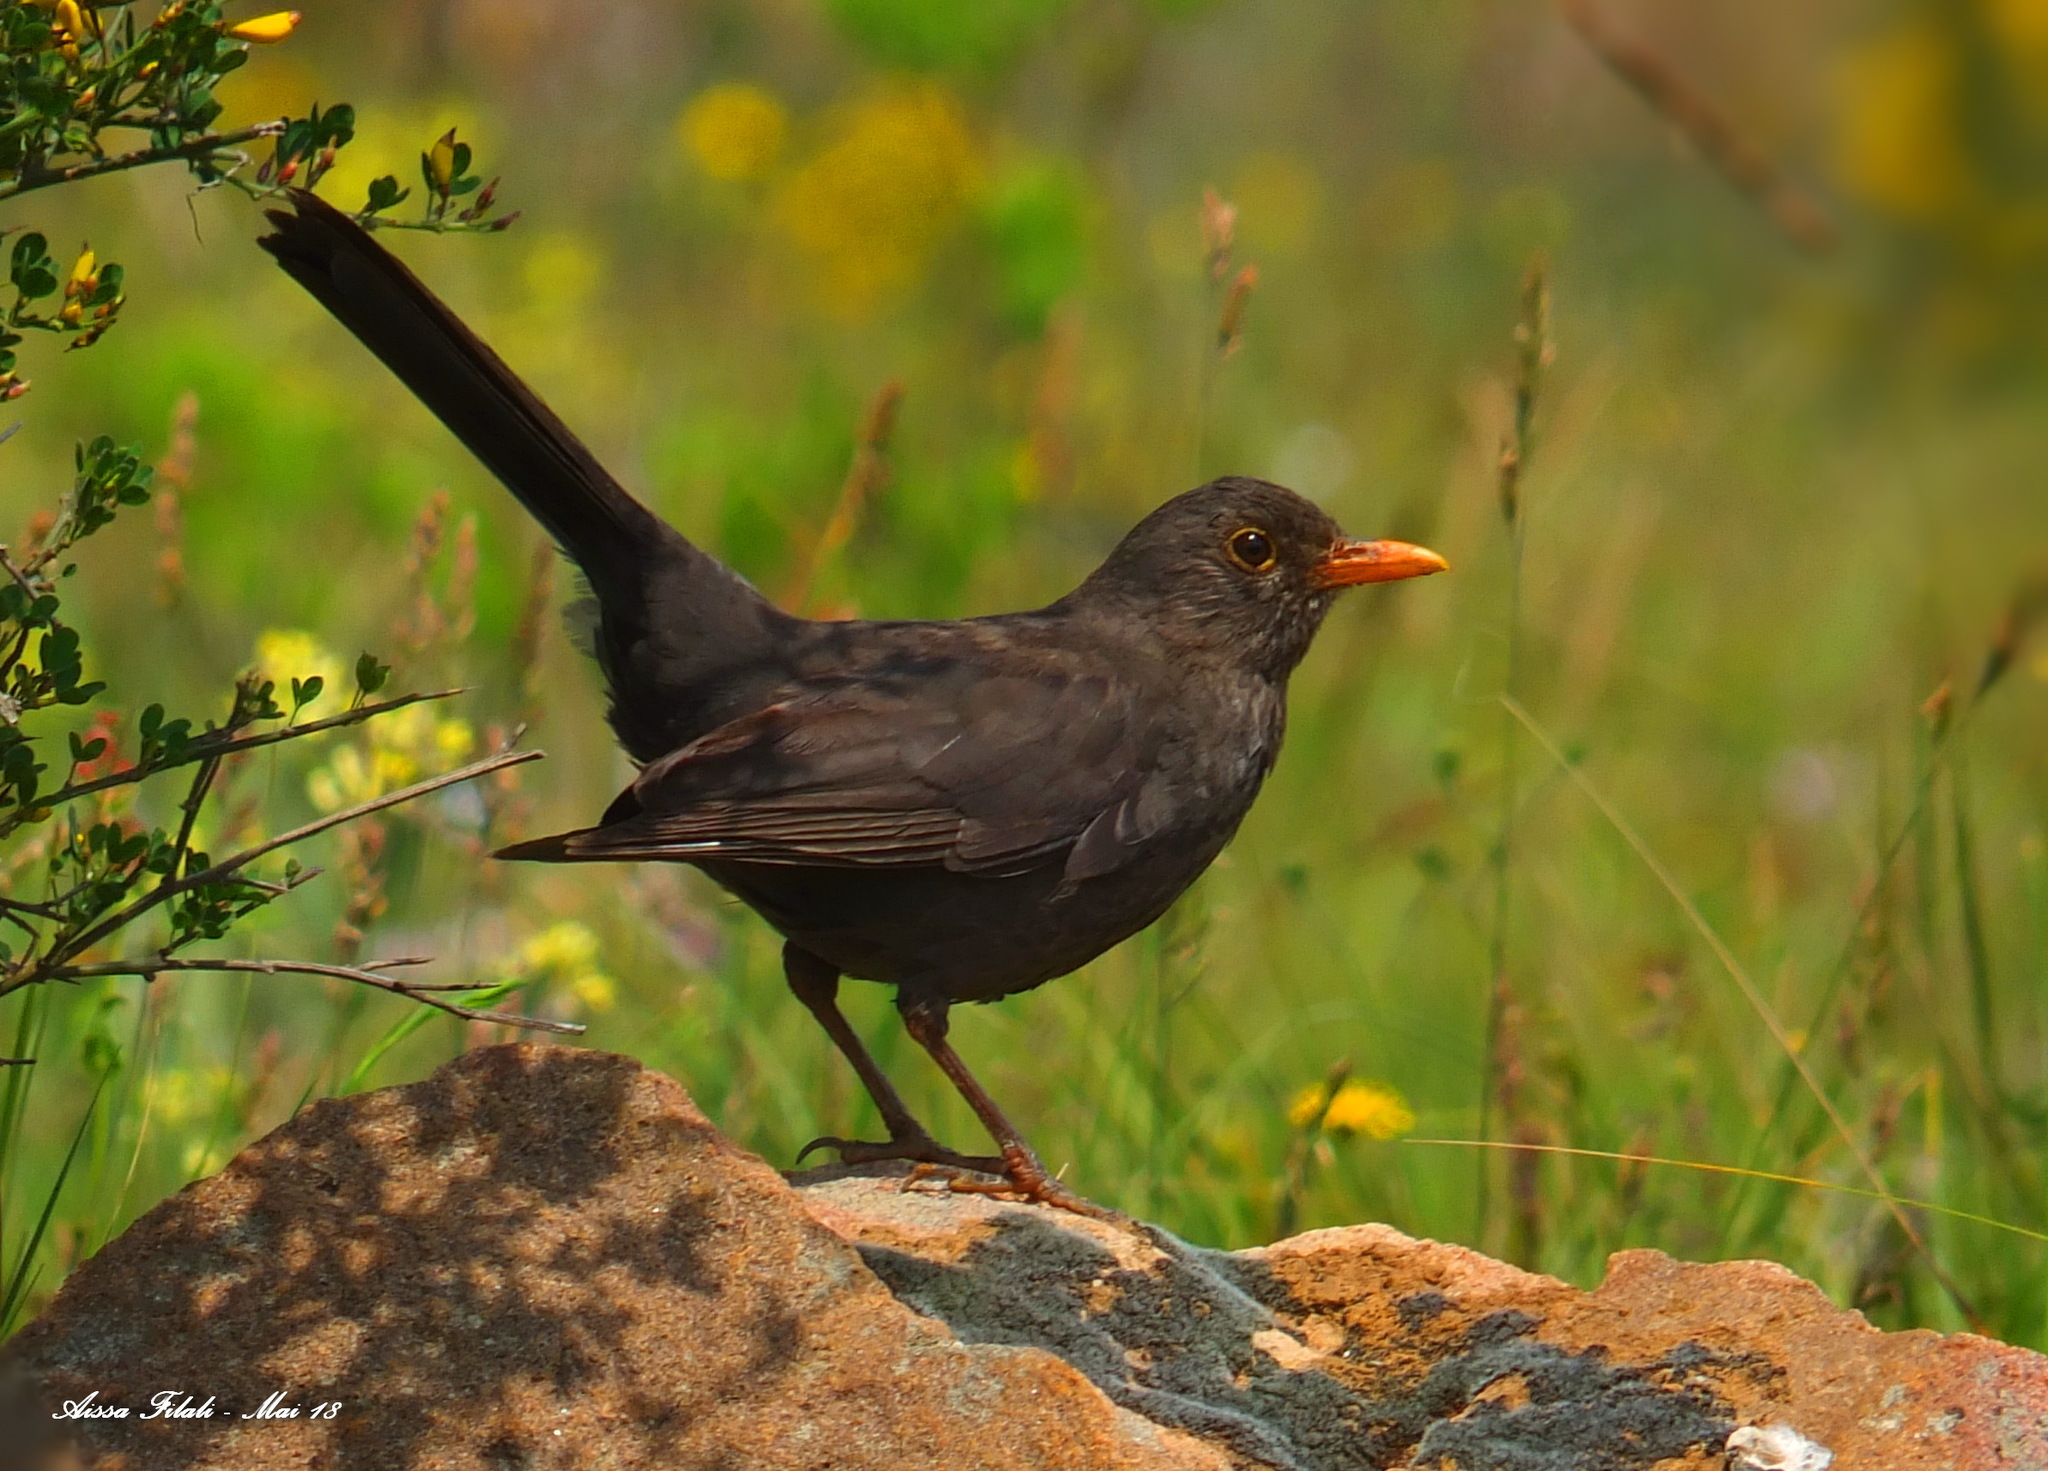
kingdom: Animalia
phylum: Chordata
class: Aves
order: Passeriformes
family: Turdidae
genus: Turdus
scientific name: Turdus merula
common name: Common blackbird
